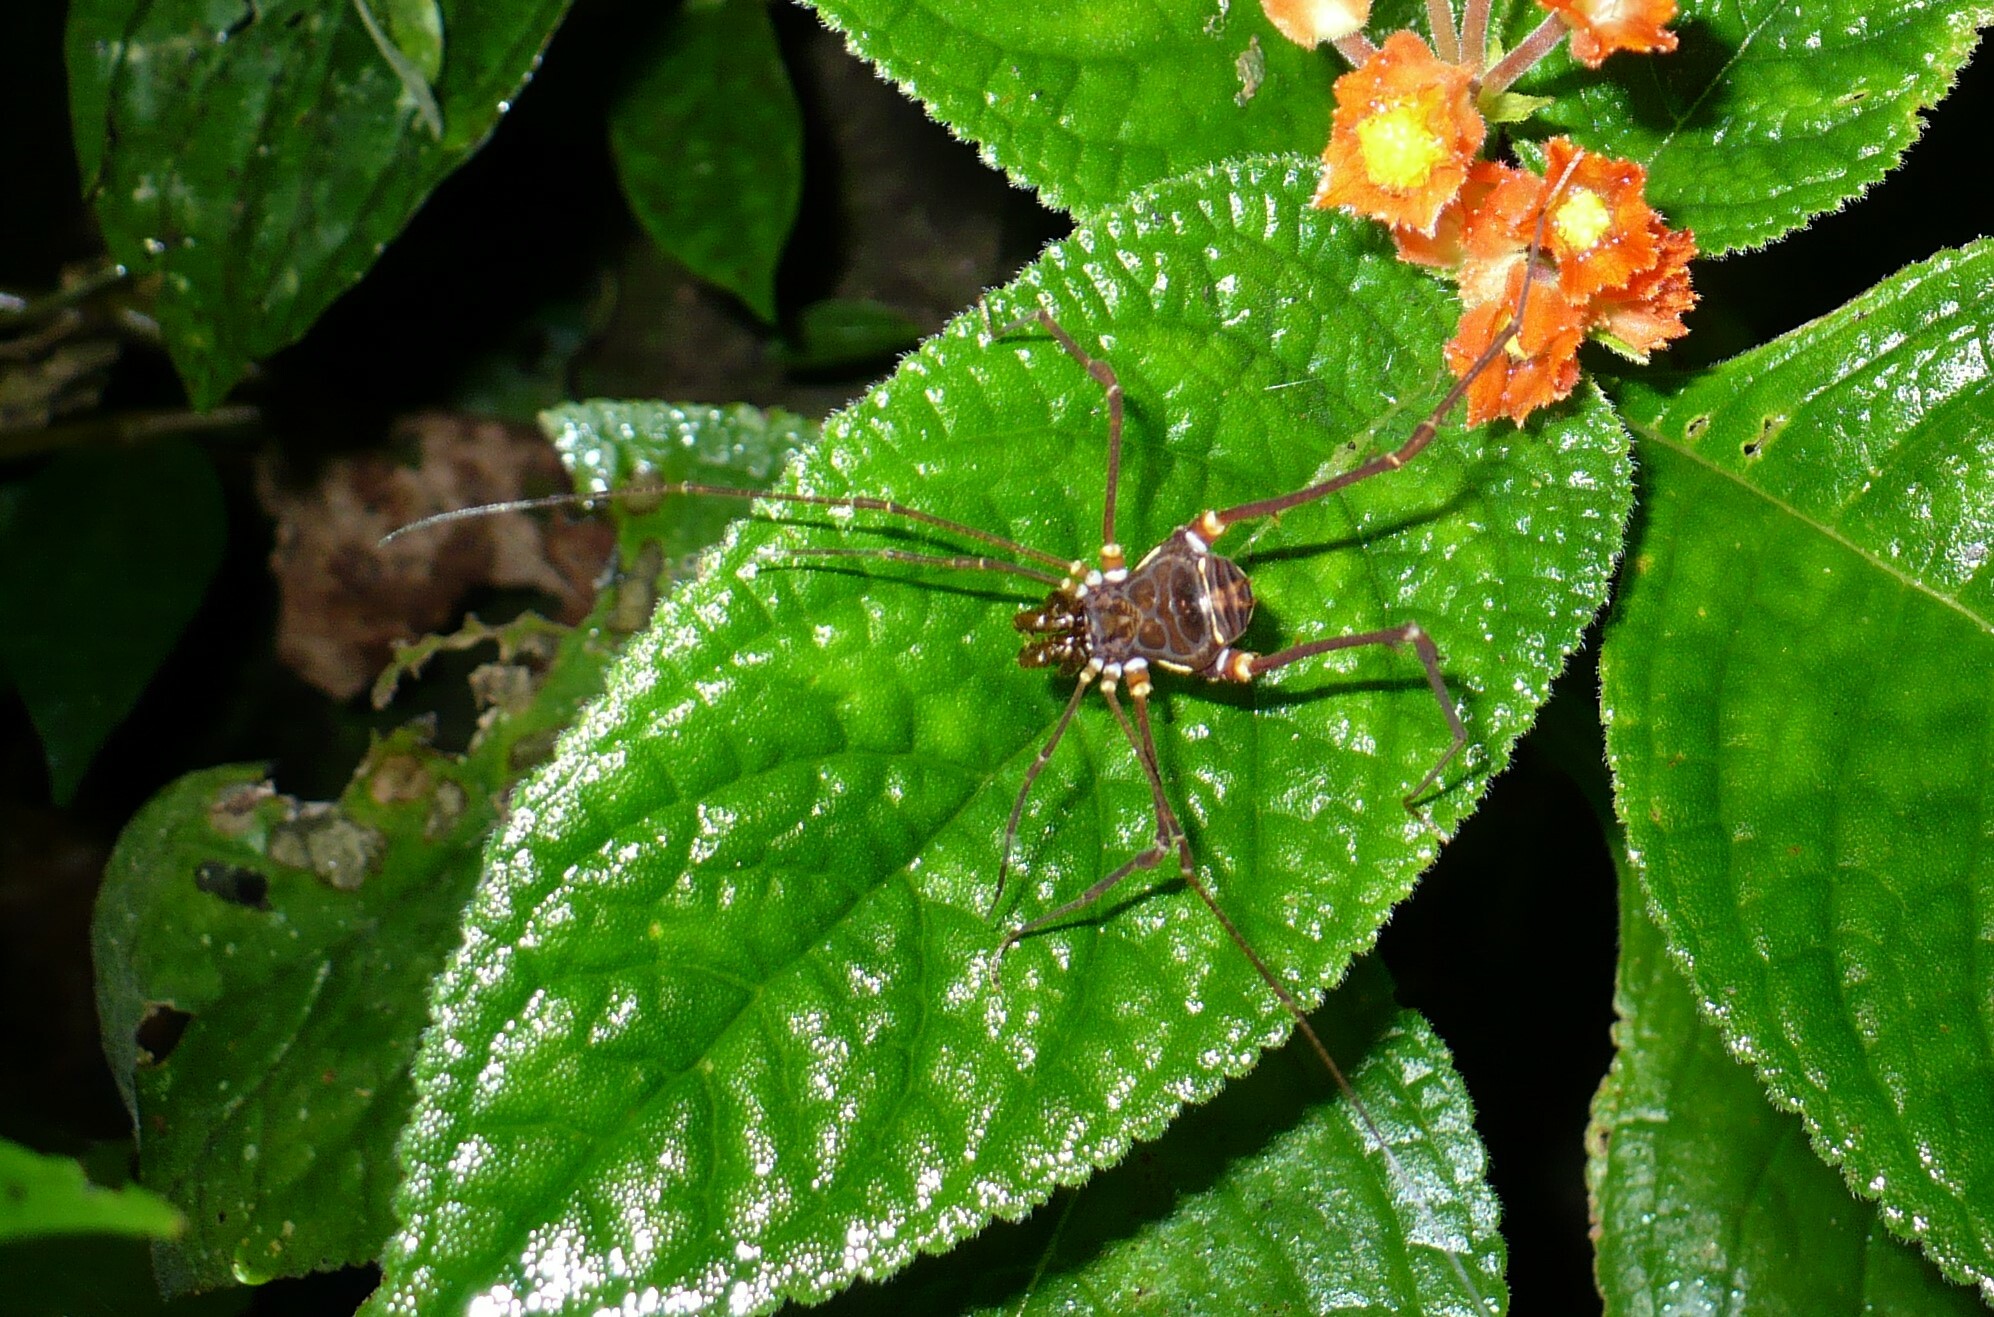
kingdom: Animalia
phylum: Arthropoda
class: Arachnida
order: Opiliones
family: Cranaidae
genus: Phareicranaus
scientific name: Phareicranaus calcariferus
